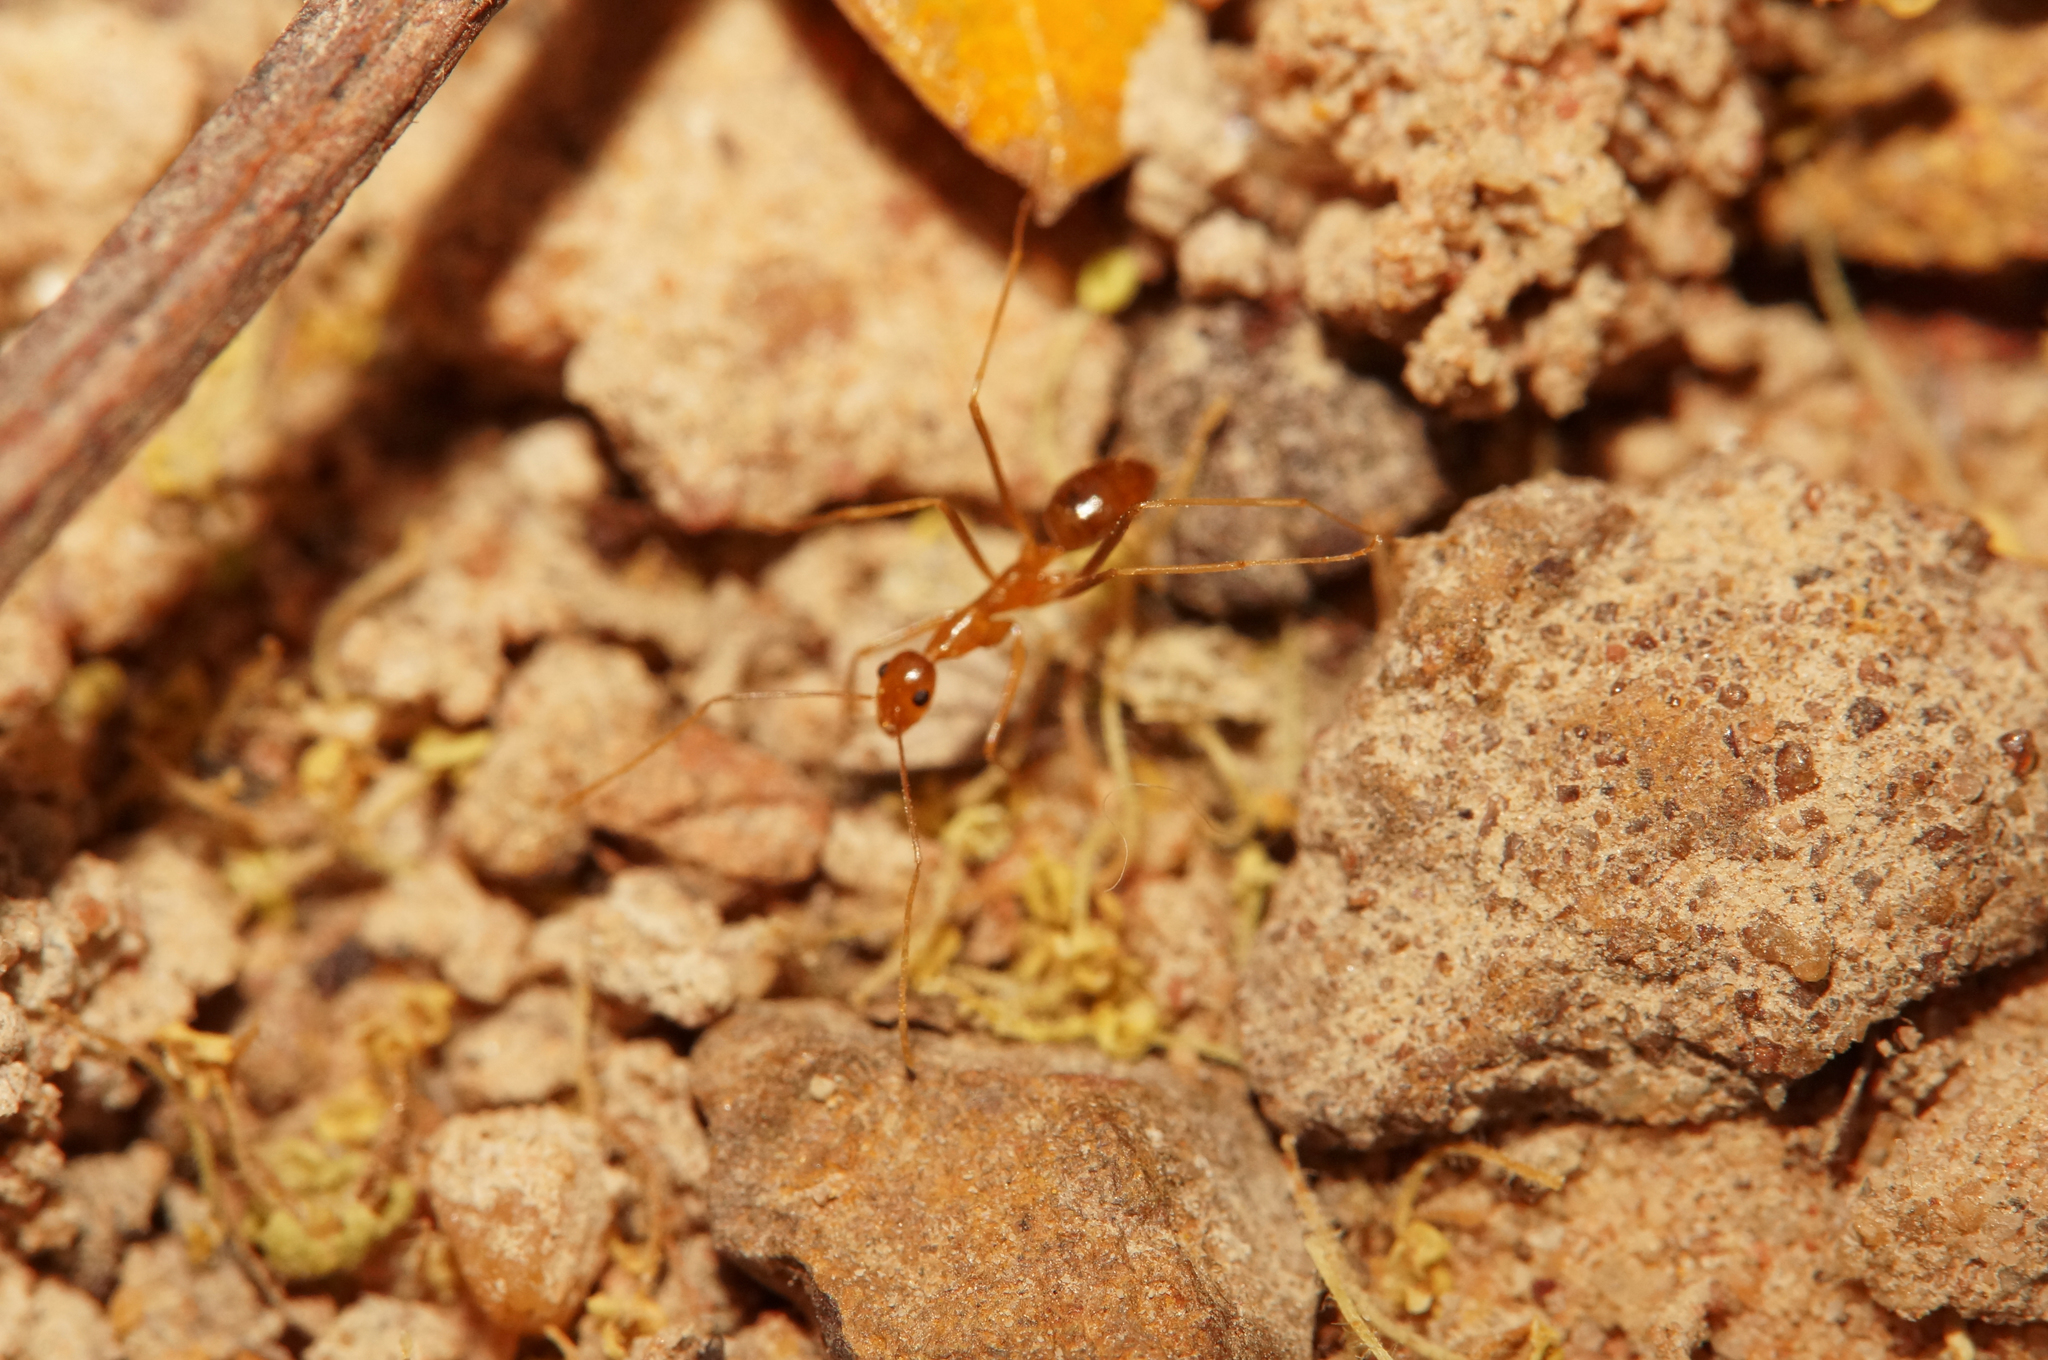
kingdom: Animalia
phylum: Arthropoda
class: Insecta
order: Hymenoptera
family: Formicidae
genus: Anoplolepis
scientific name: Anoplolepis gracilipes
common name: Ant
